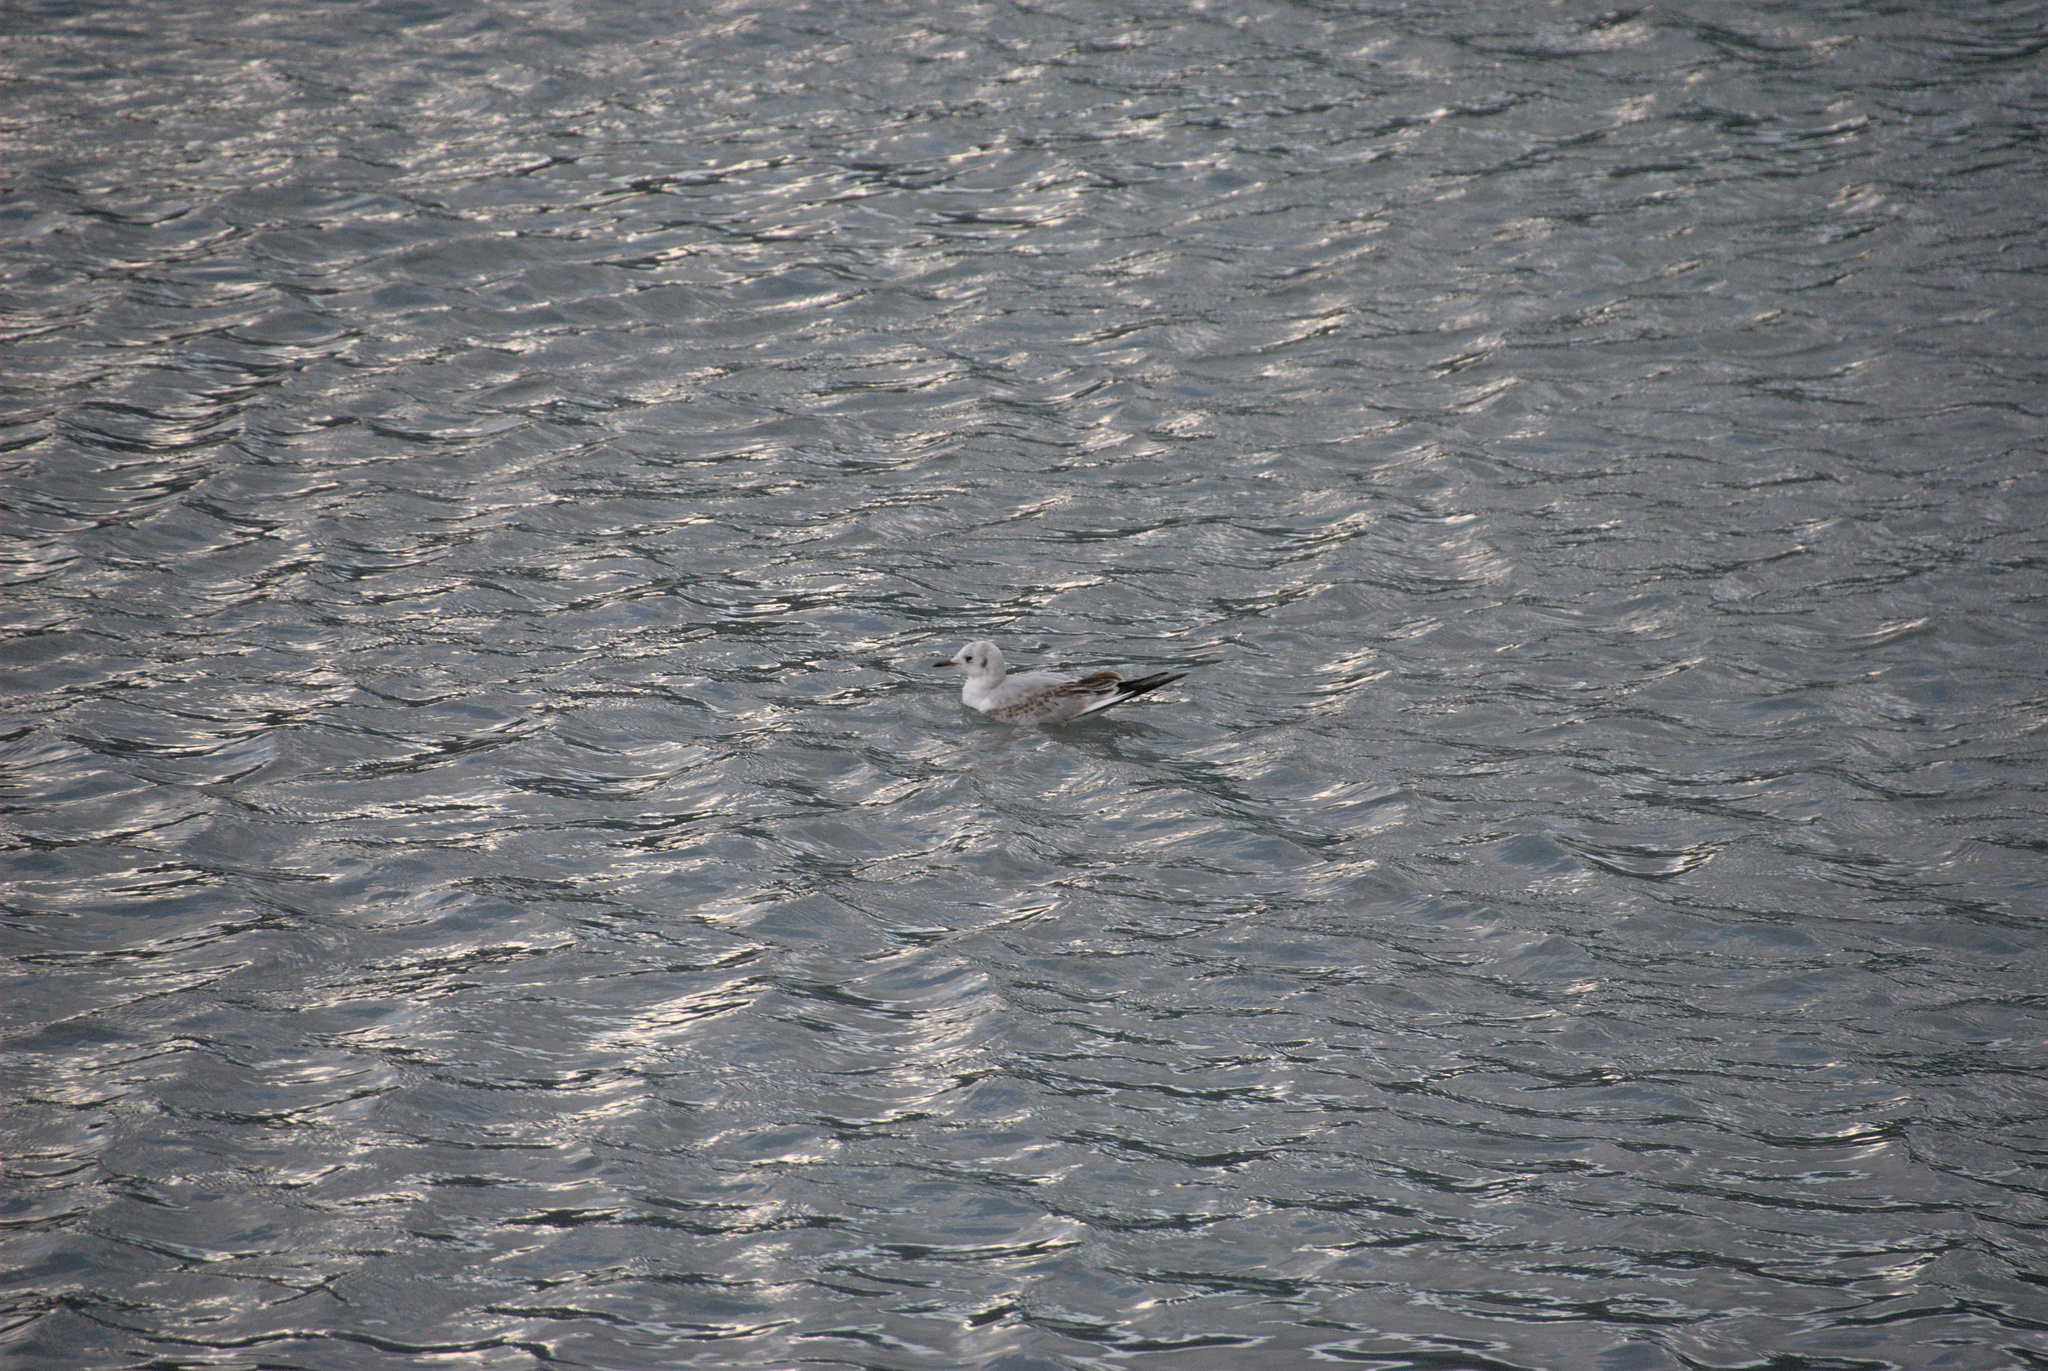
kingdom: Animalia
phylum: Chordata
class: Aves
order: Charadriiformes
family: Laridae
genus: Chroicocephalus
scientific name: Chroicocephalus ridibundus
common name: Black-headed gull
